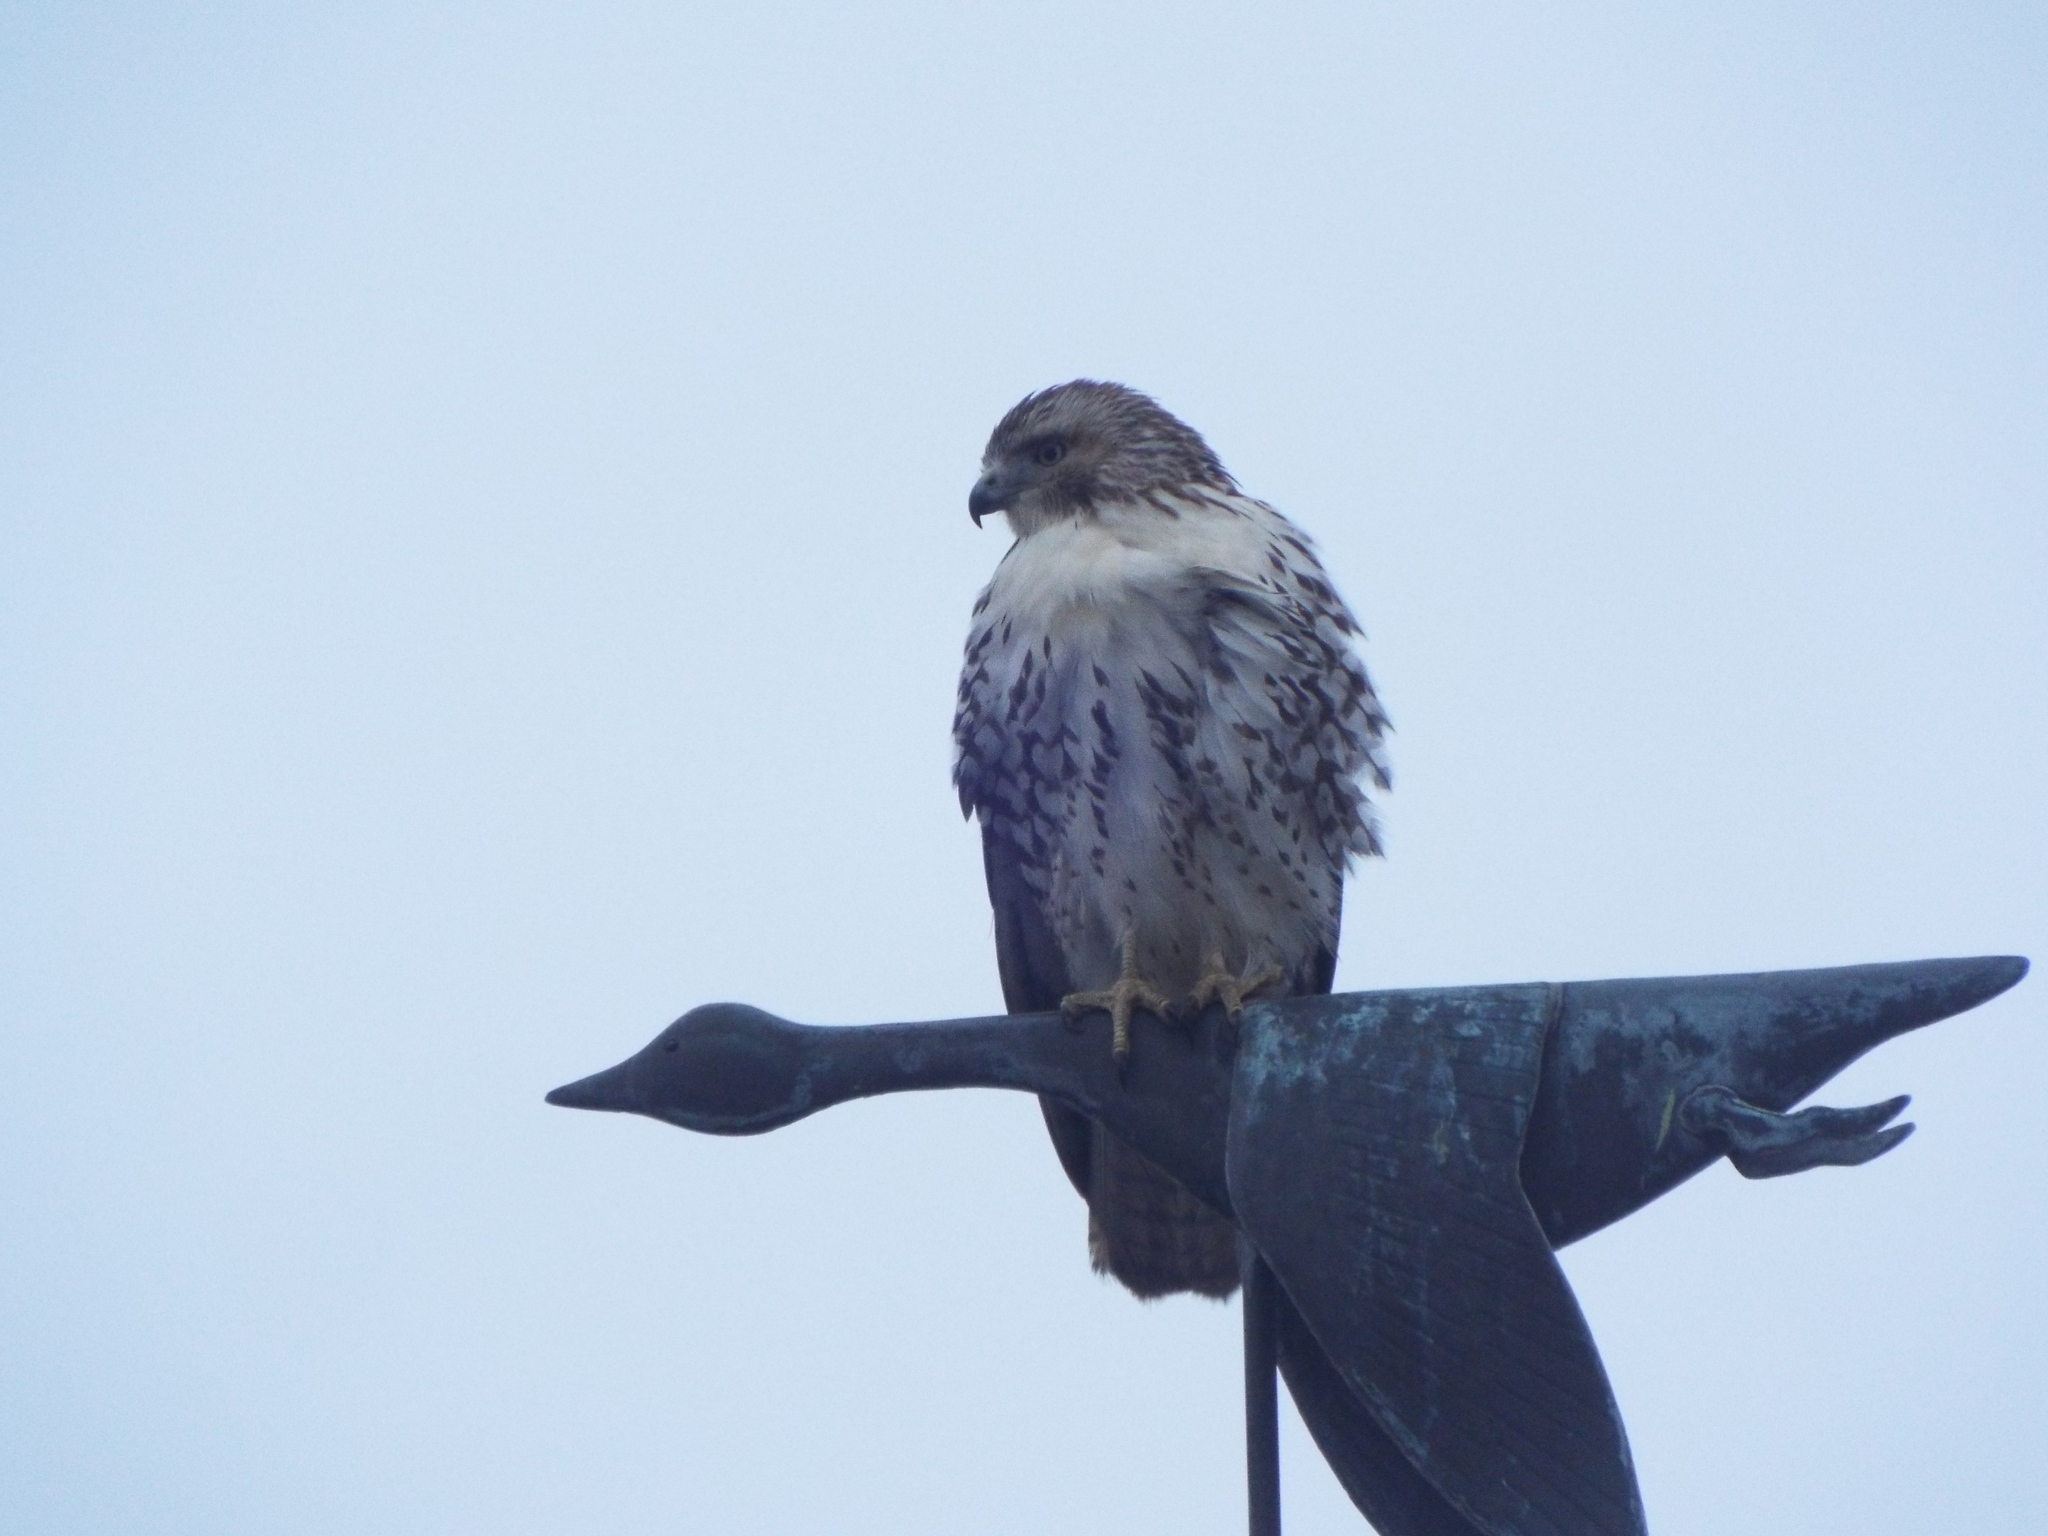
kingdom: Animalia
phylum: Chordata
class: Aves
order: Accipitriformes
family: Accipitridae
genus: Buteo
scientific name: Buteo jamaicensis
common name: Red-tailed hawk
